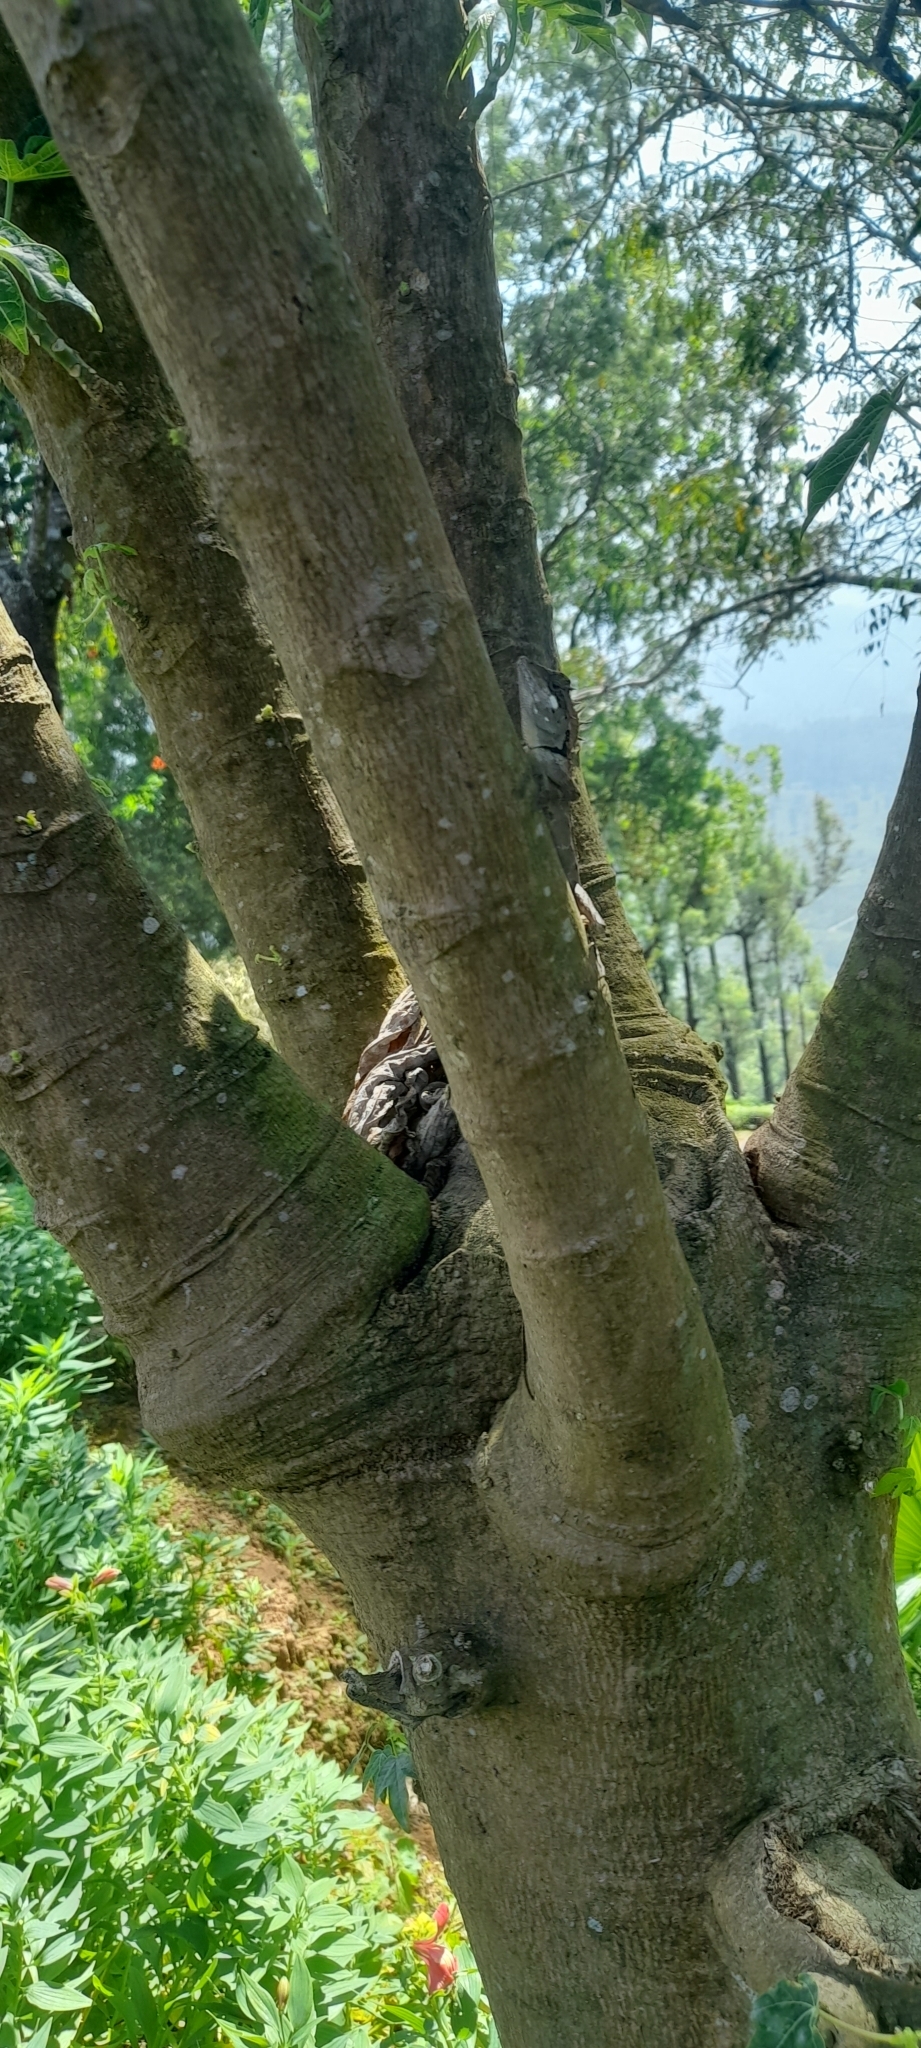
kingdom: Animalia
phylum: Chordata
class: Squamata
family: Agamidae
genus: Monilesaurus
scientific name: Monilesaurus ellioti
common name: Elliot's forest lizard
